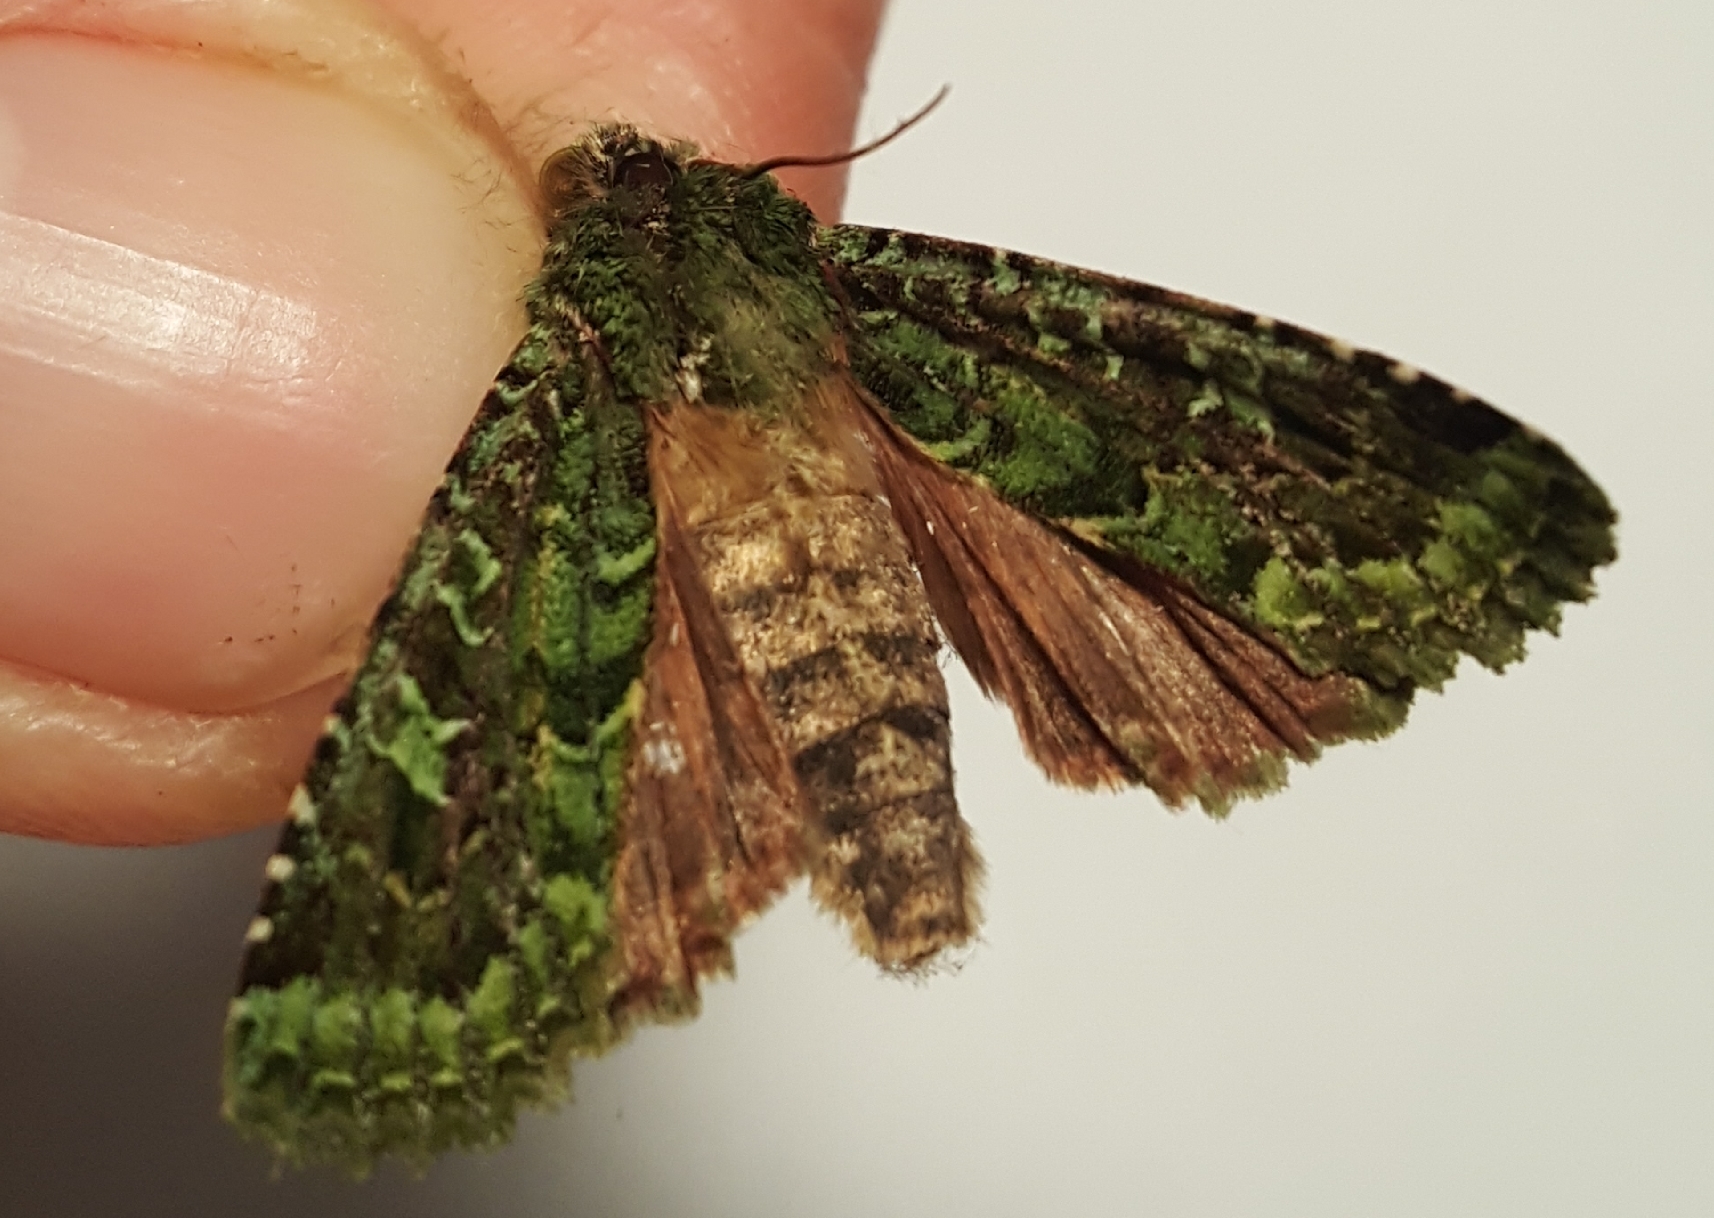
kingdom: Animalia
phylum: Arthropoda
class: Insecta
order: Lepidoptera
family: Noctuidae
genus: Feredayia
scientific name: Feredayia grammosa
